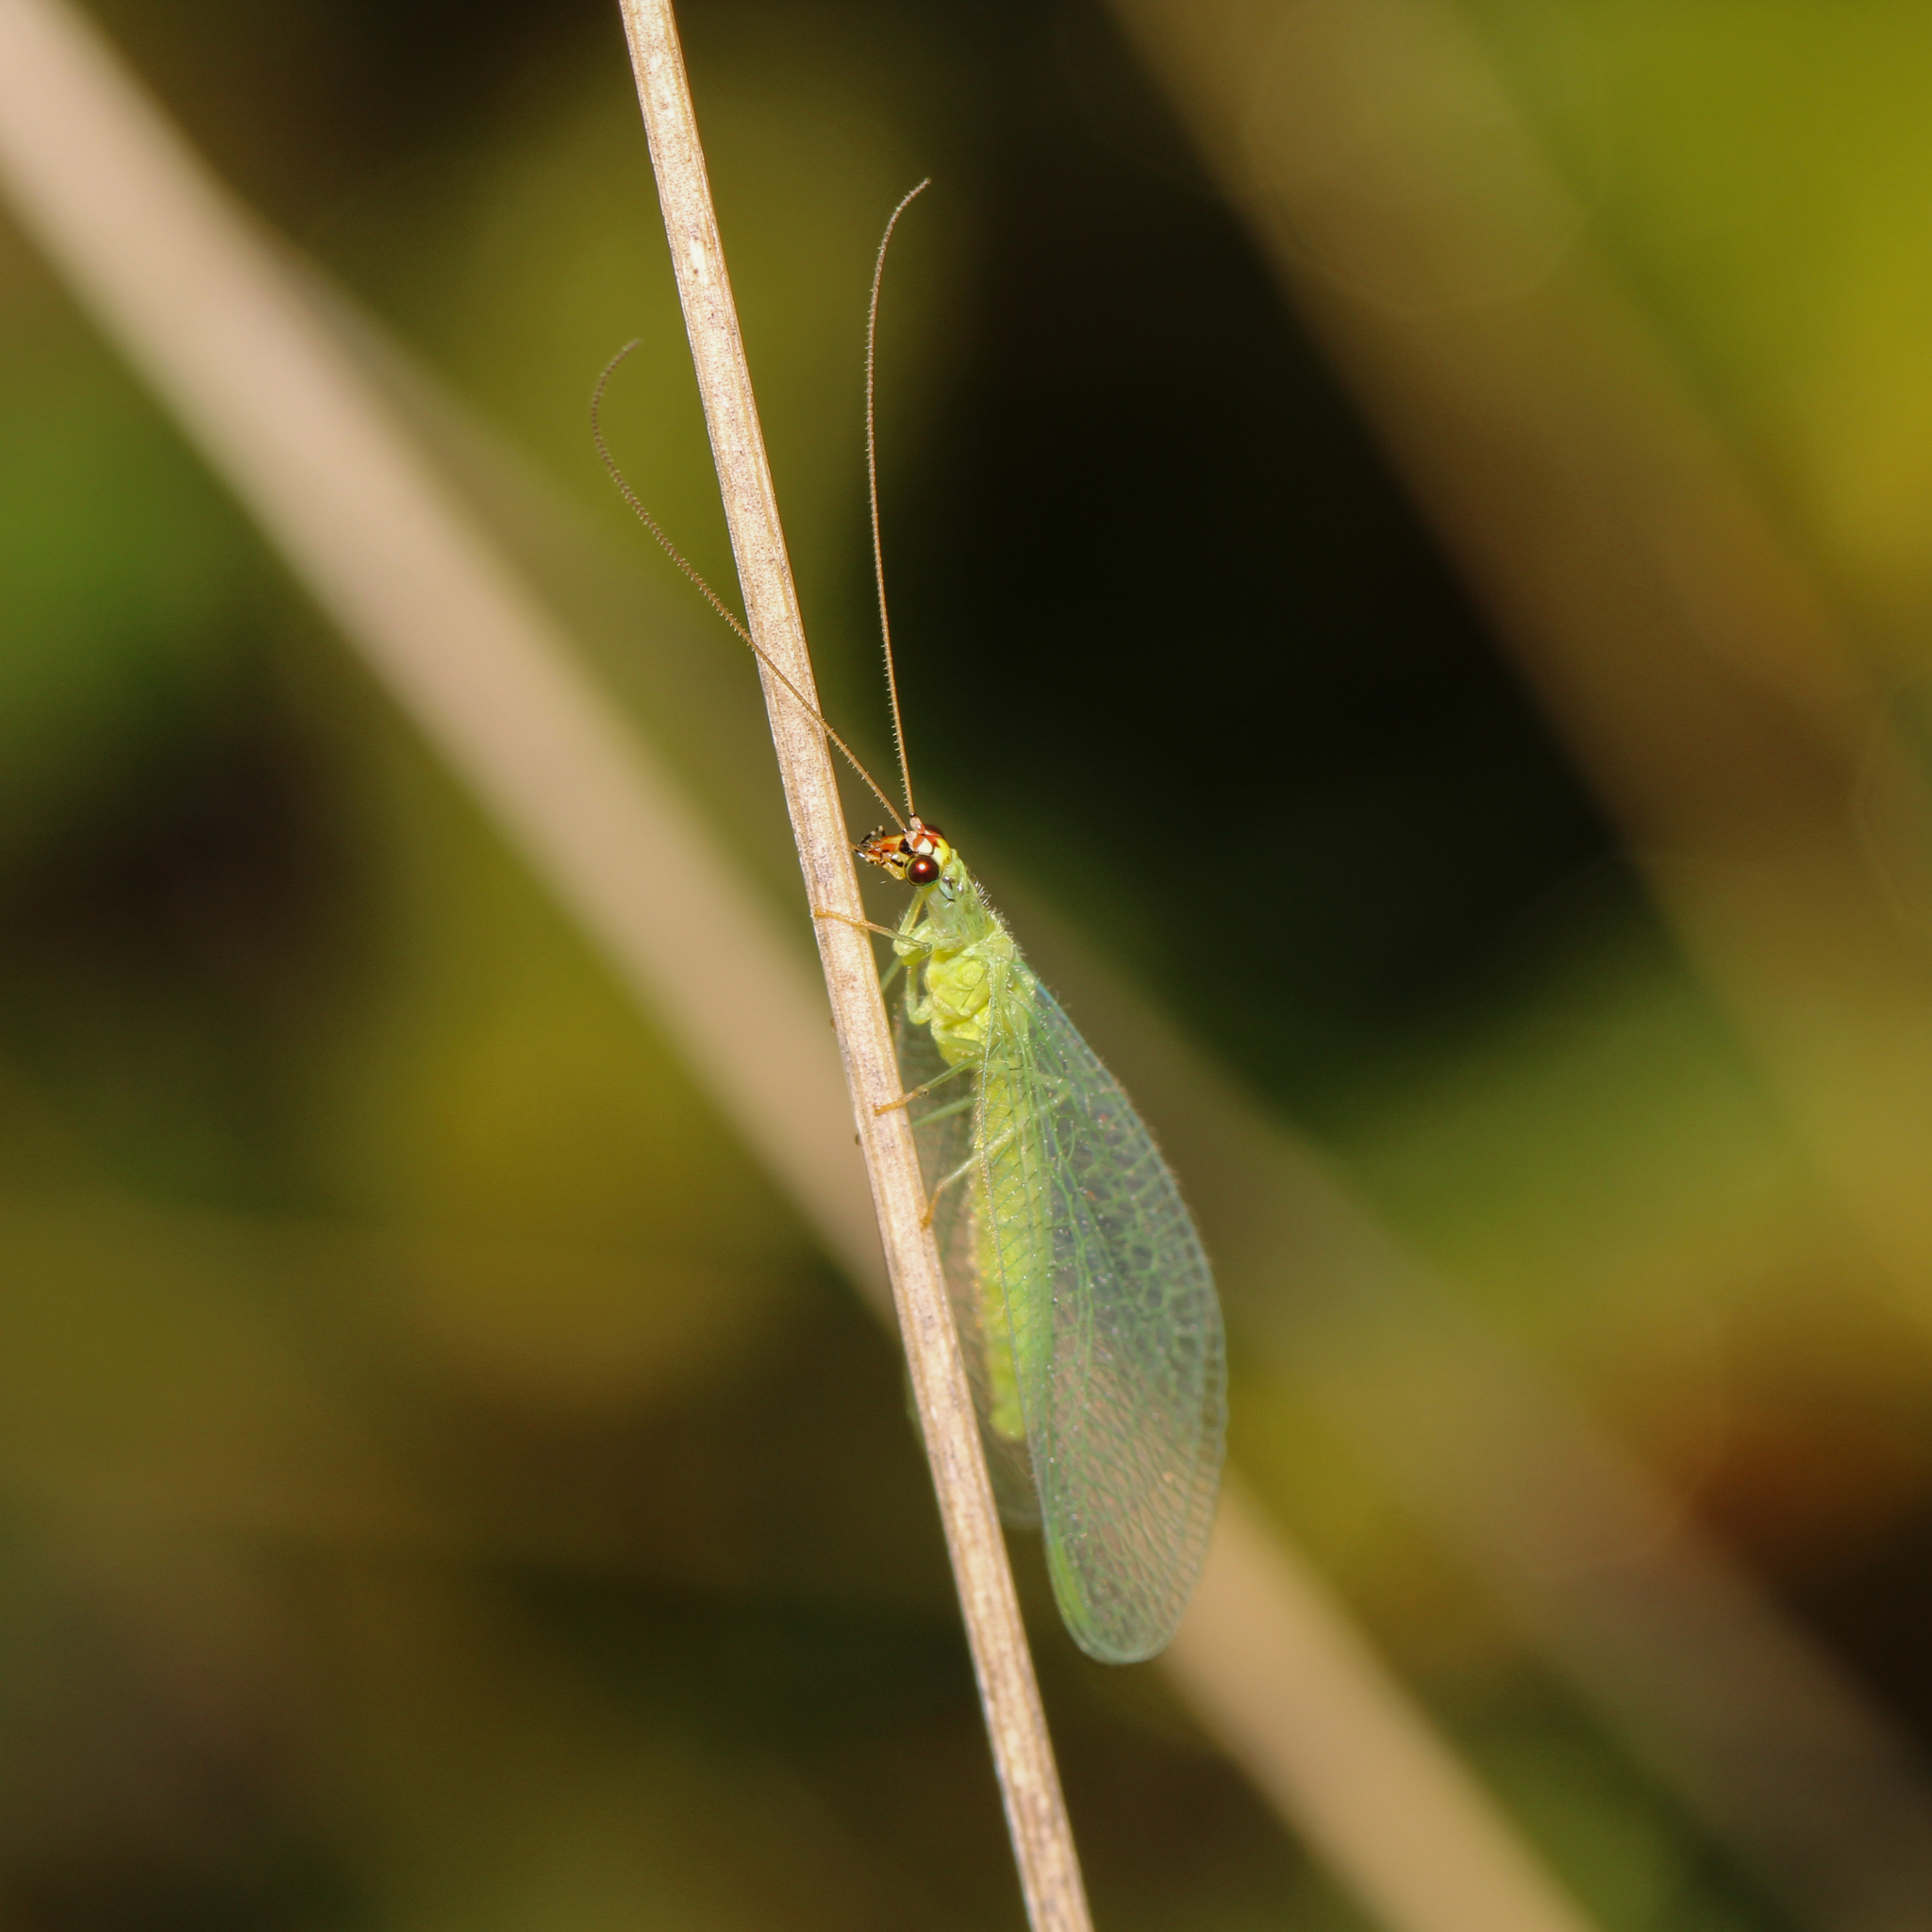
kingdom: Animalia
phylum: Arthropoda
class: Insecta
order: Neuroptera
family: Chrysopidae
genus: Chrysopa
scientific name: Chrysopa oculata
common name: Golden-eyed lacewing
